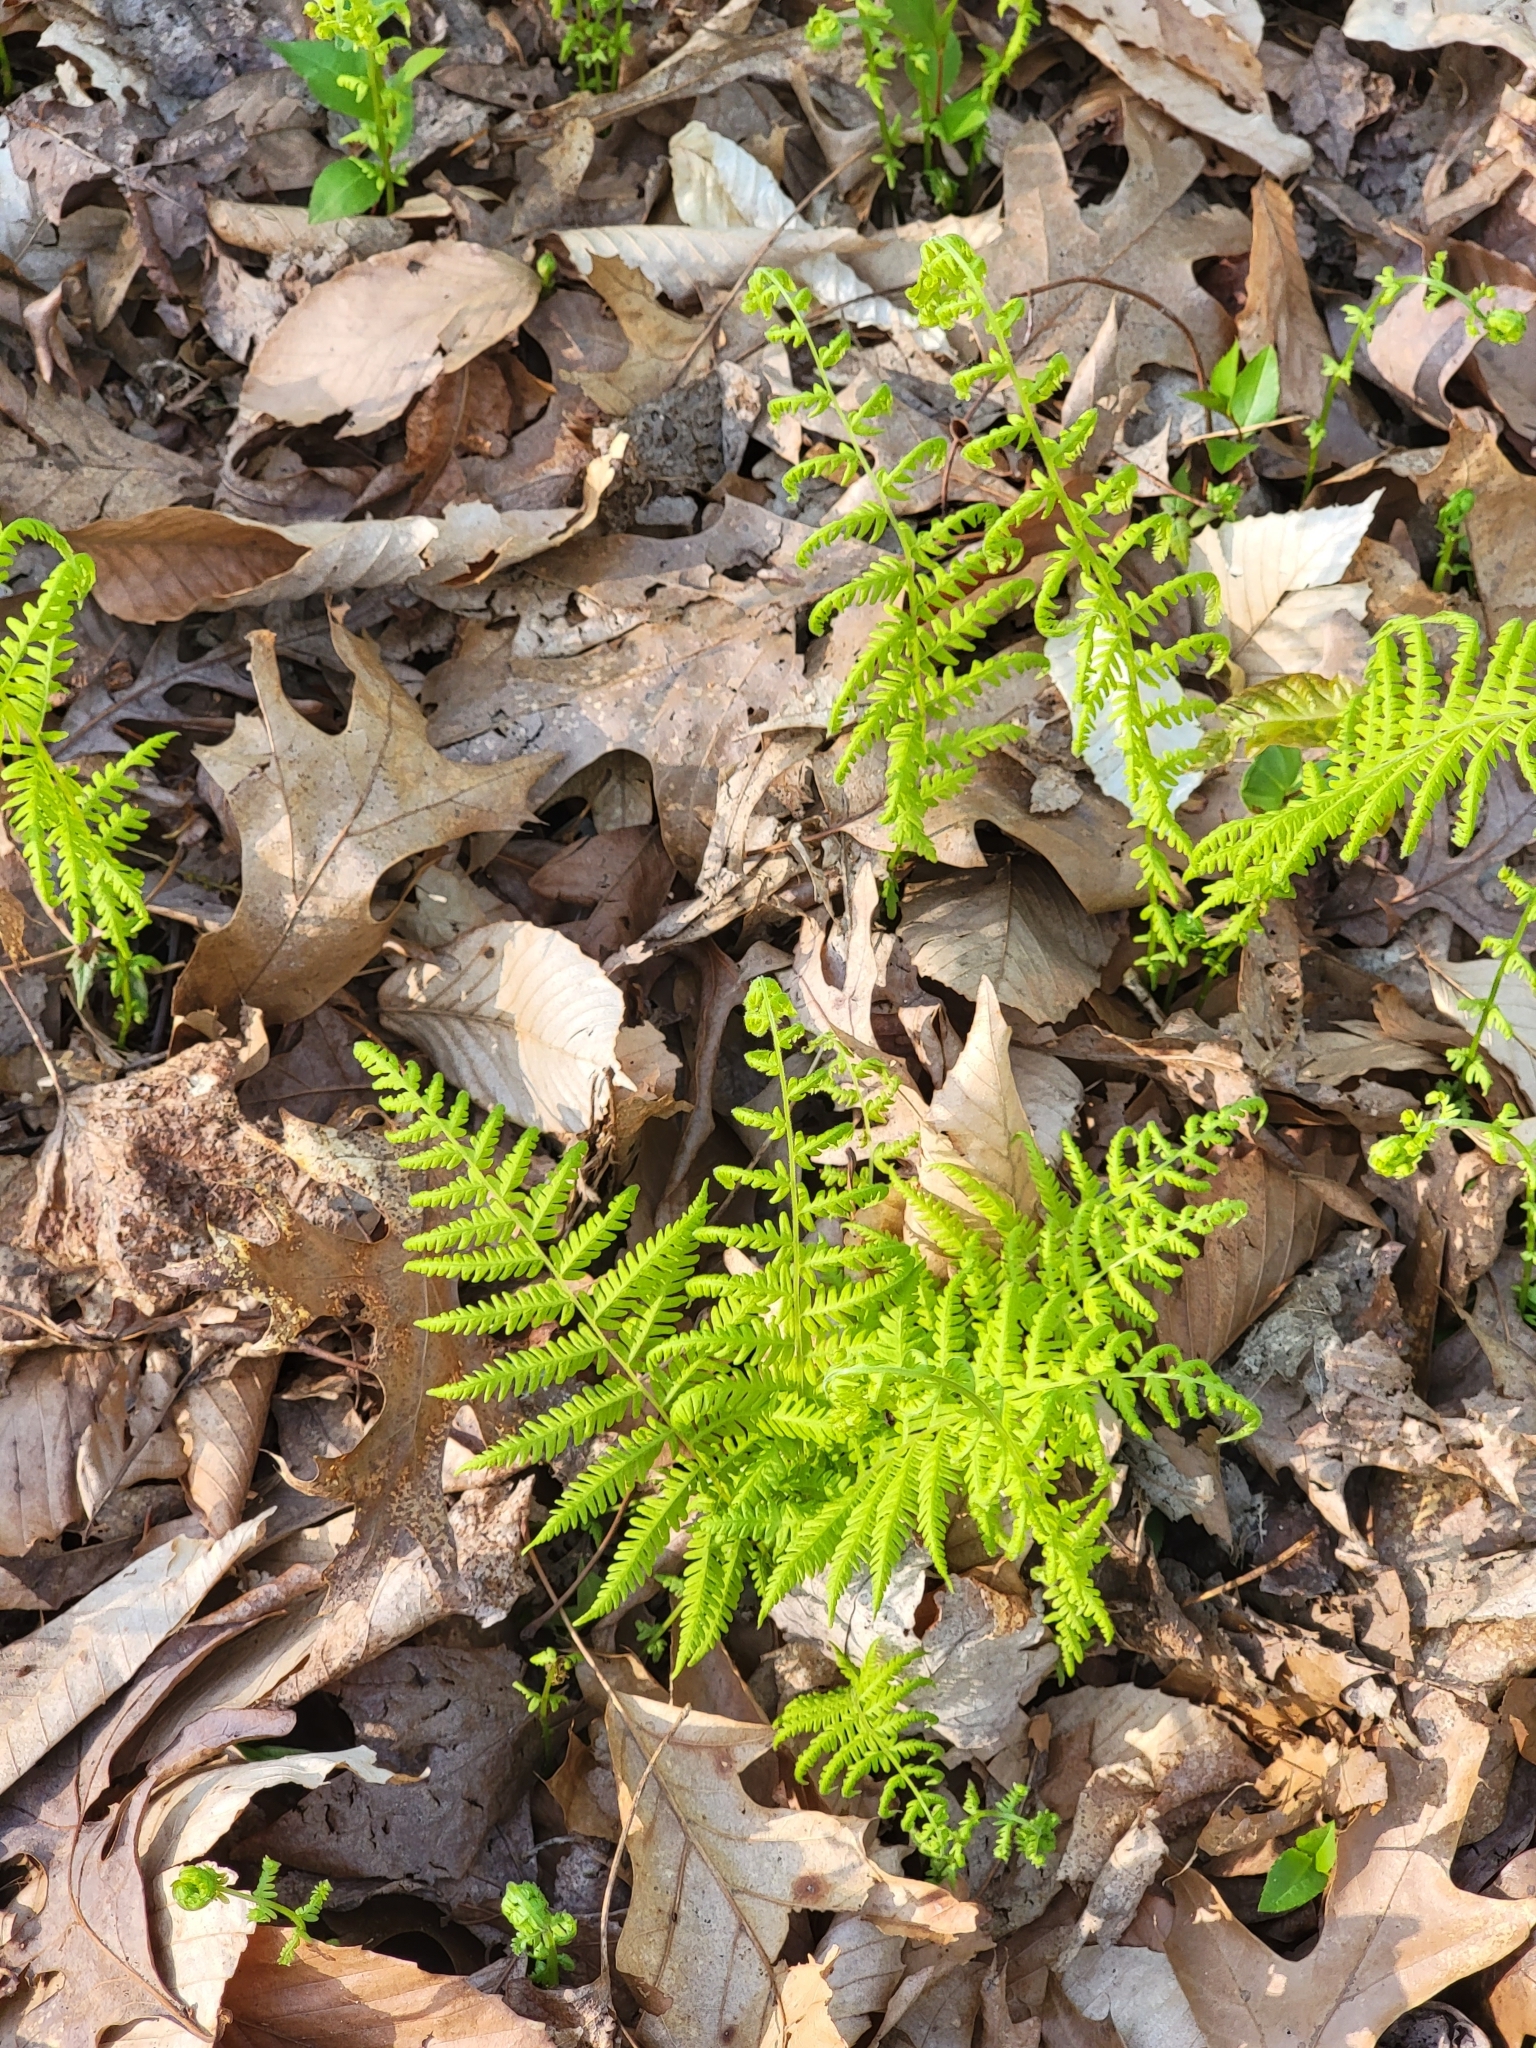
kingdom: Plantae
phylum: Tracheophyta
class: Polypodiopsida
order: Polypodiales
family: Thelypteridaceae
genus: Amauropelta
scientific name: Amauropelta noveboracensis
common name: New york fern
